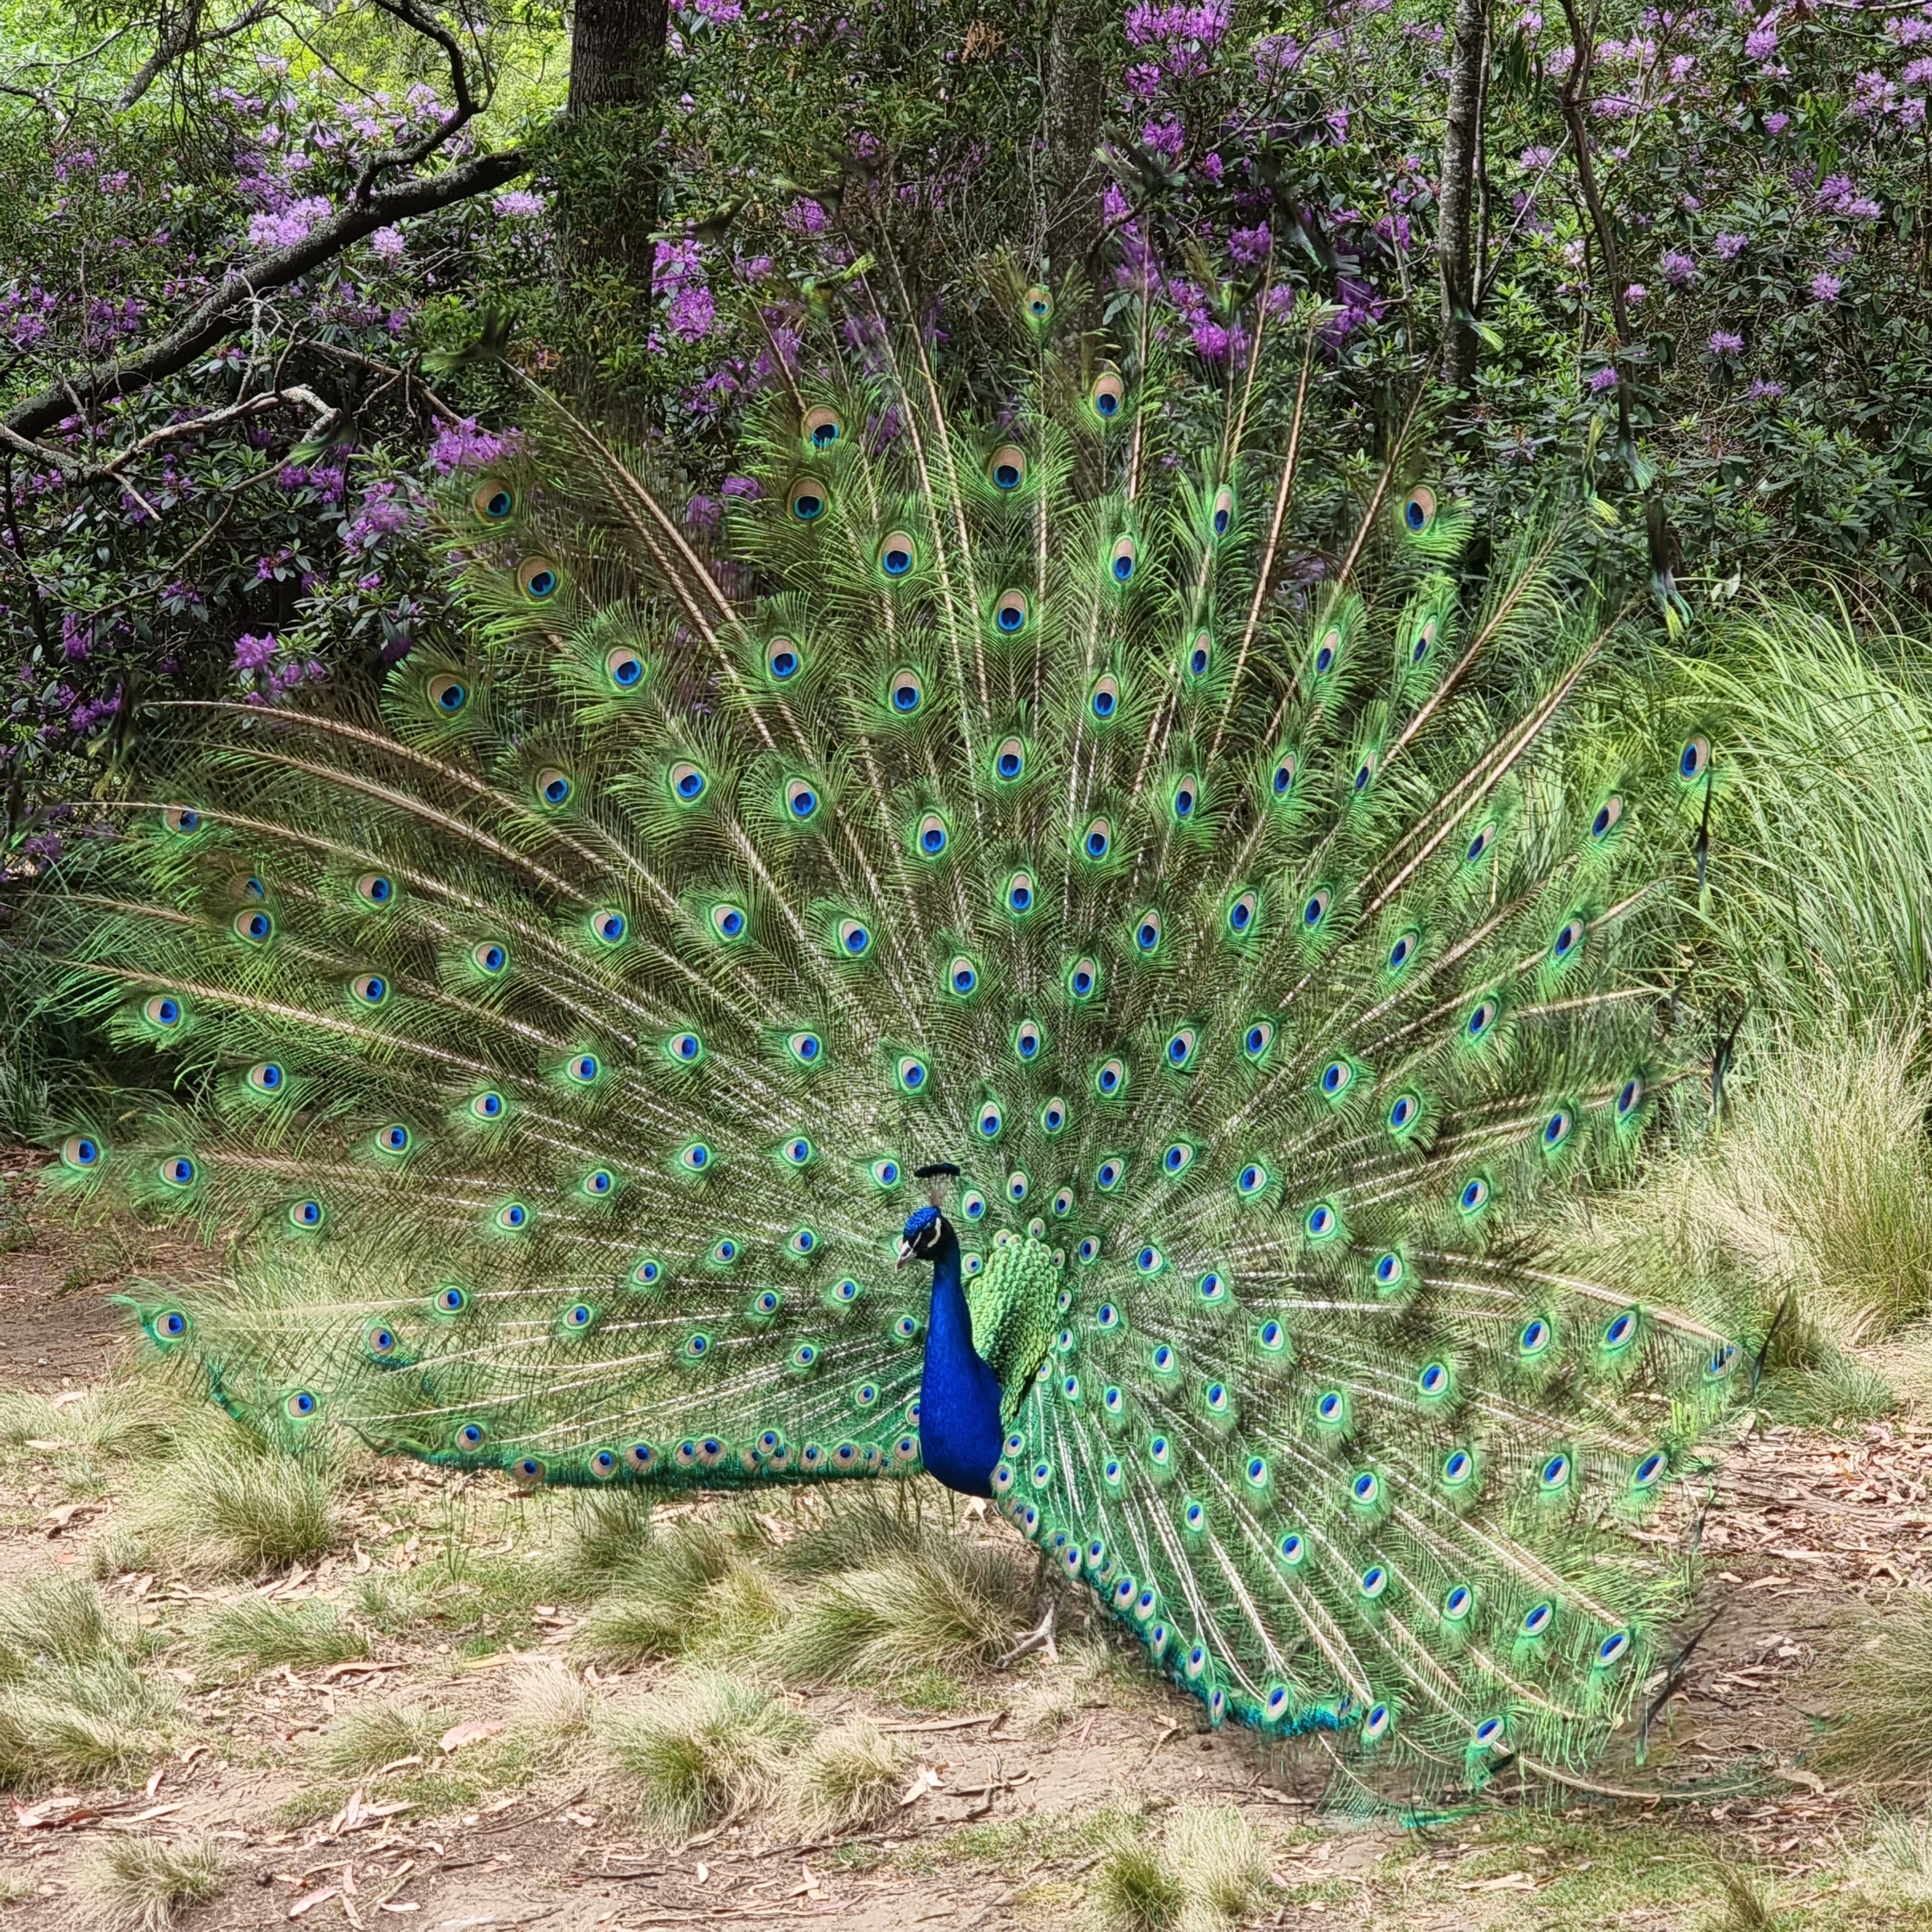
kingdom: Animalia
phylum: Chordata
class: Aves
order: Galliformes
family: Phasianidae
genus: Pavo
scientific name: Pavo cristatus
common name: Indian peafowl
